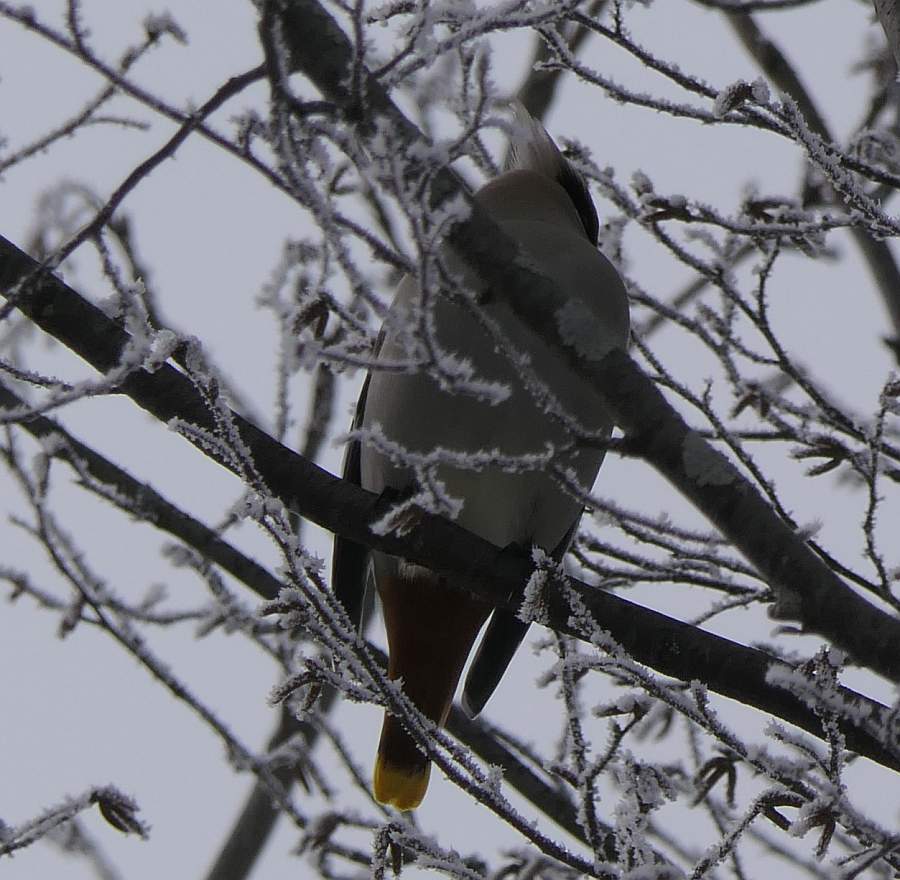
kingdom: Animalia
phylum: Chordata
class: Aves
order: Passeriformes
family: Bombycillidae
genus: Bombycilla
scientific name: Bombycilla garrulus
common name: Bohemian waxwing
